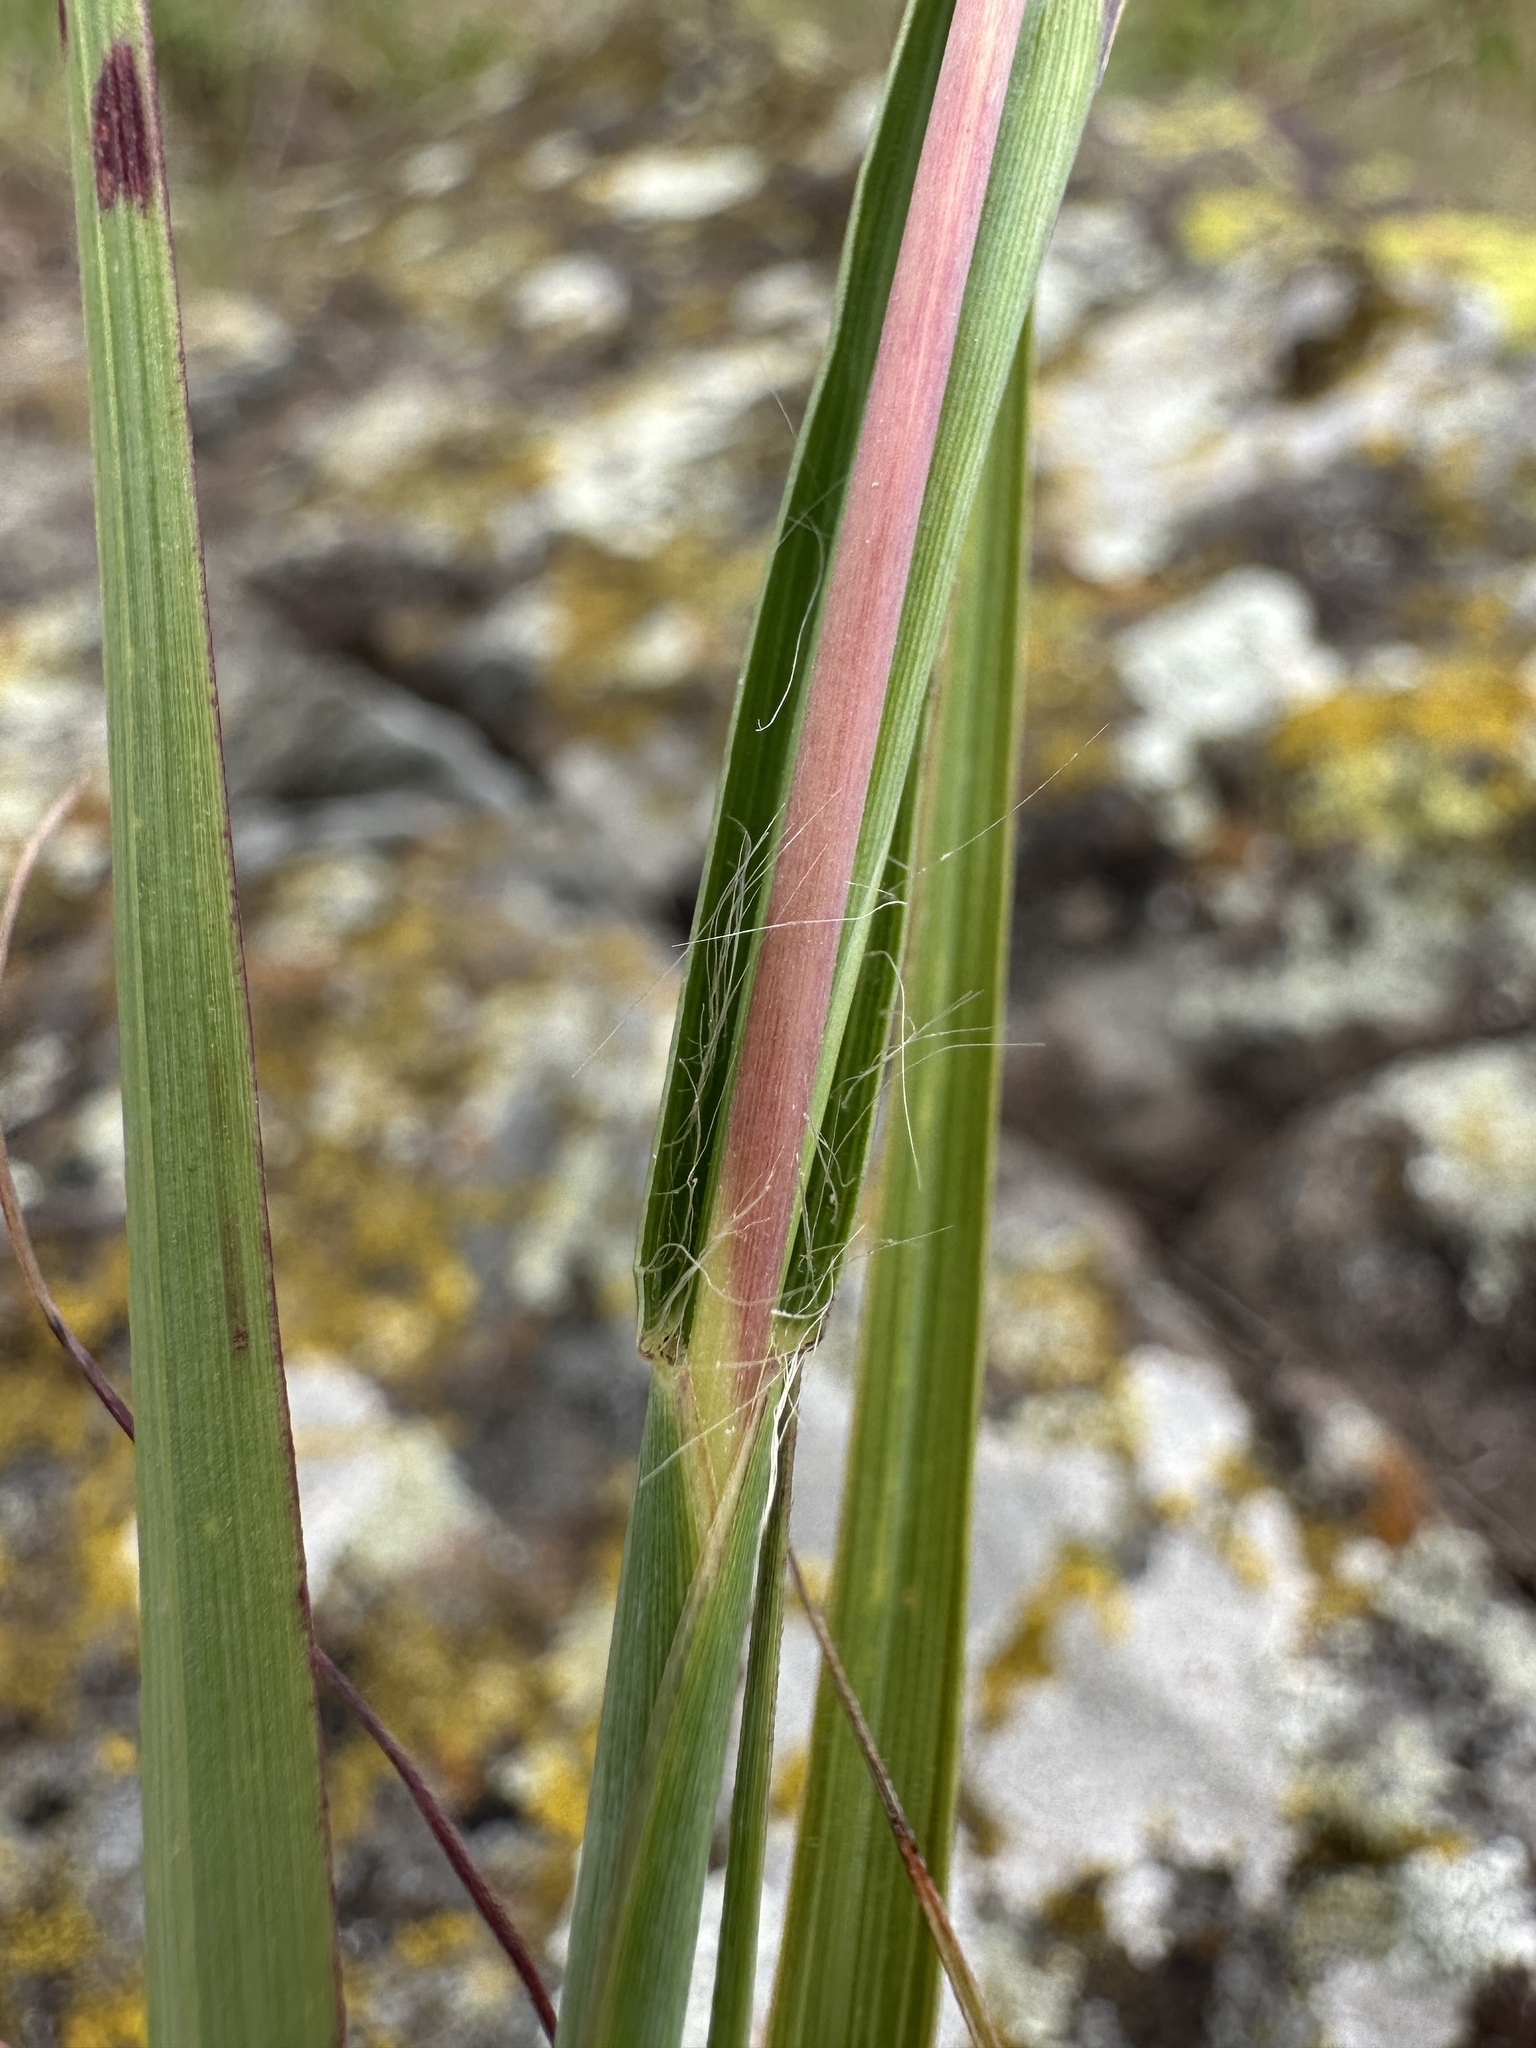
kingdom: Plantae
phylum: Tracheophyta
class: Liliopsida
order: Poales
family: Poaceae
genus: Andropogon
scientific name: Andropogon gerardi
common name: Big bluestem
